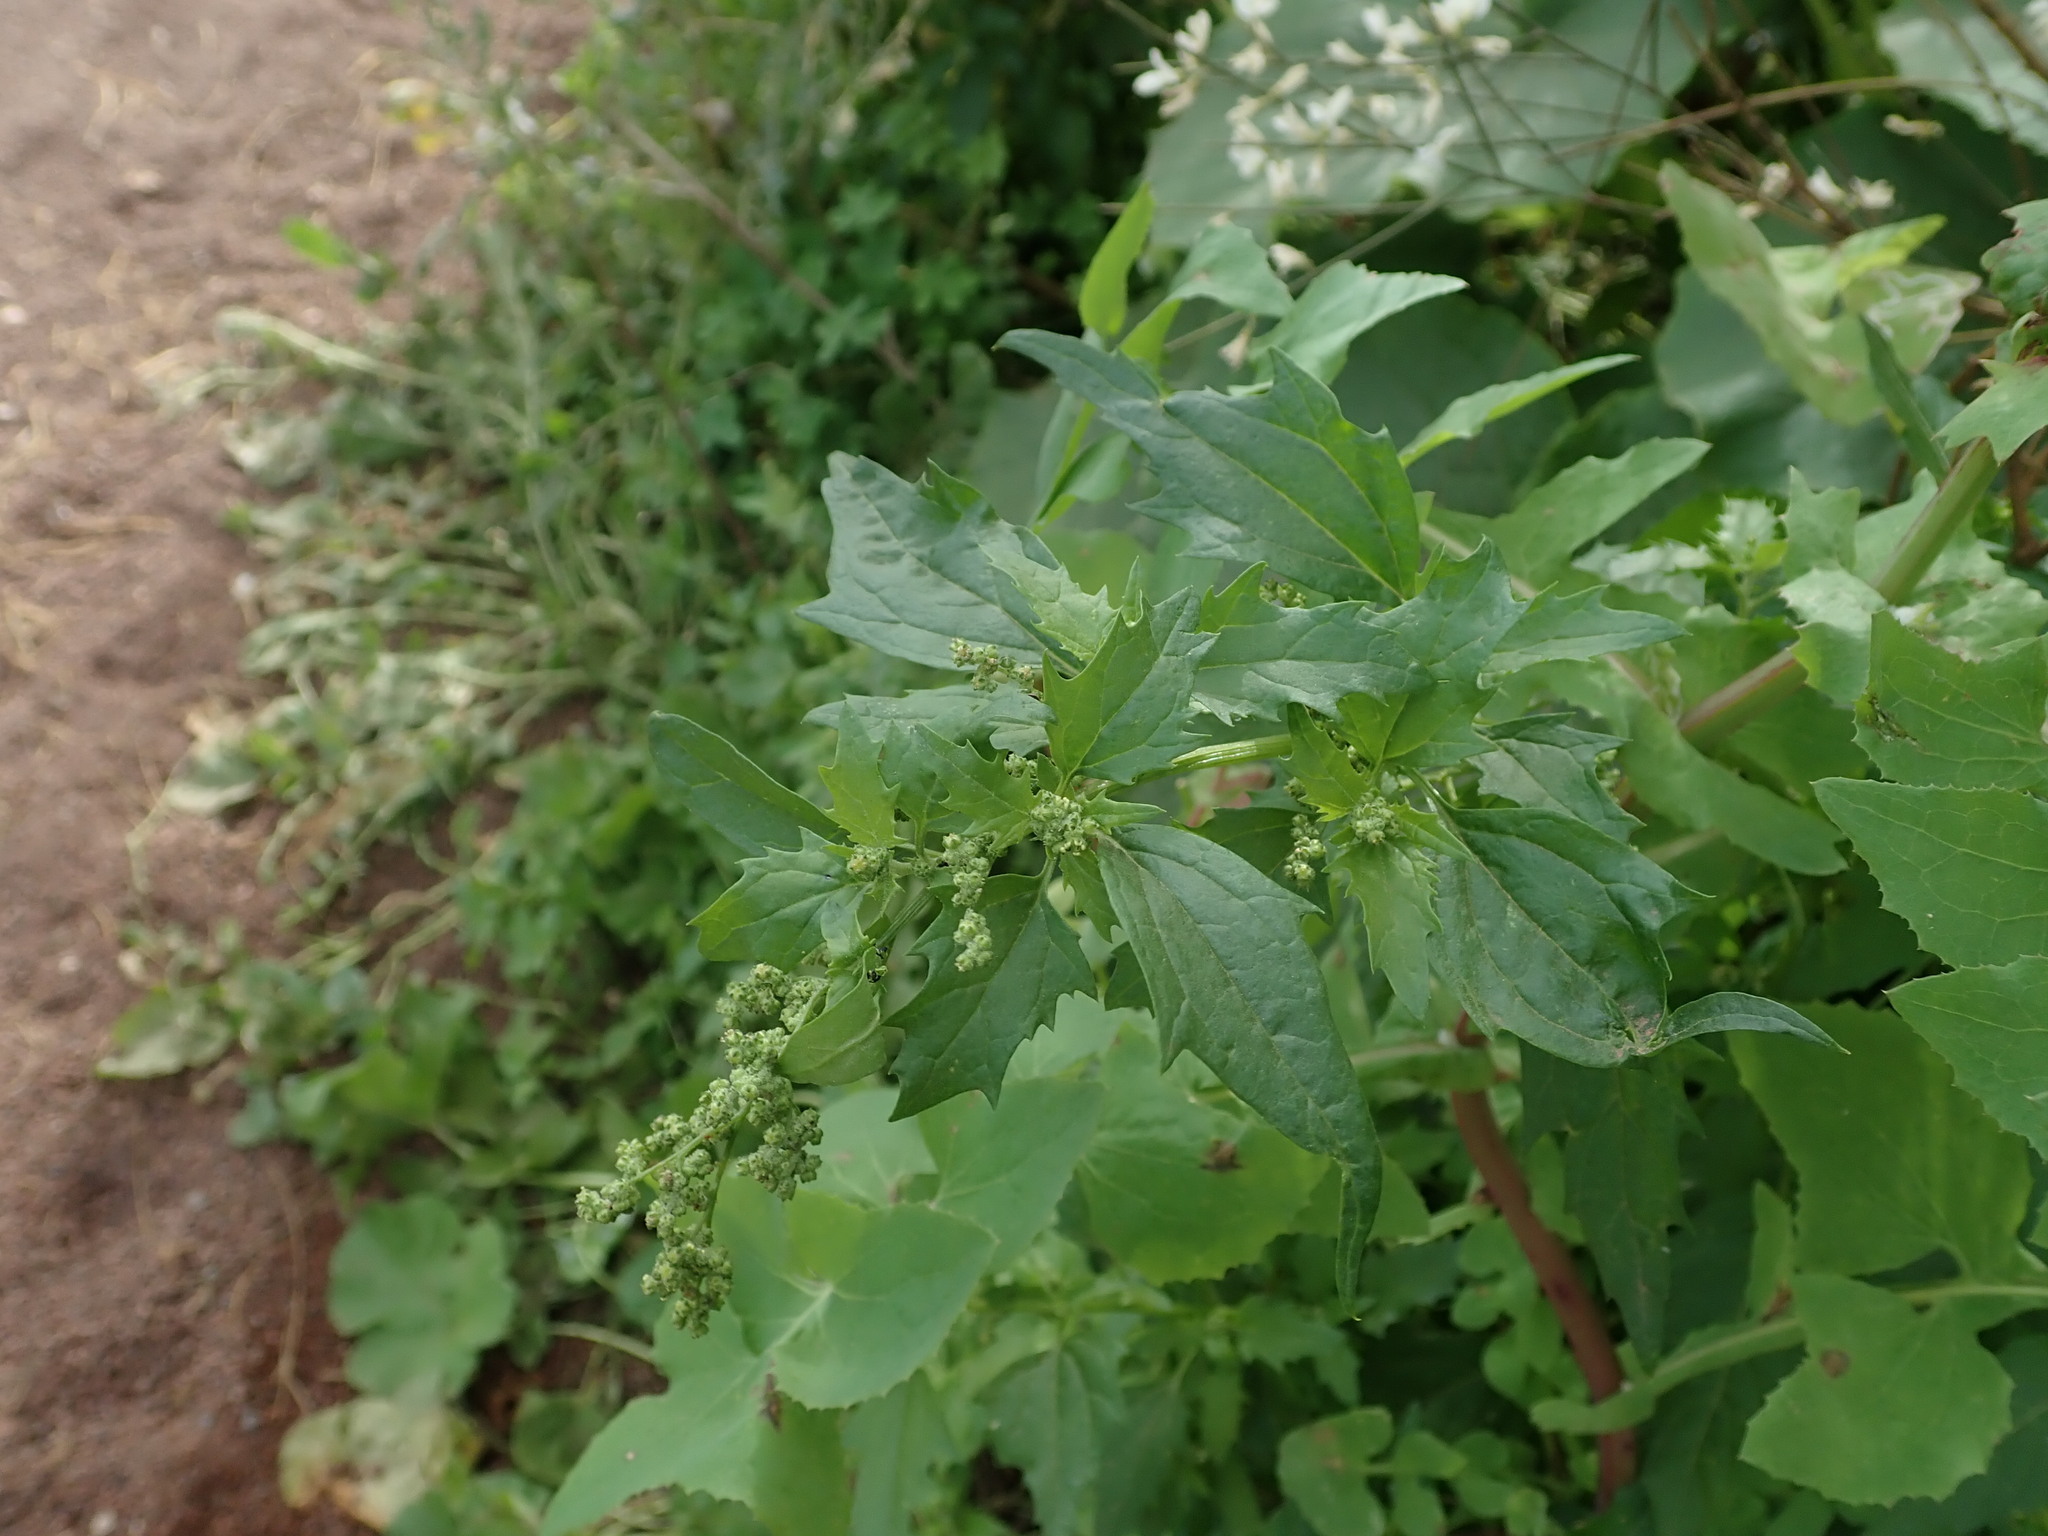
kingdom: Plantae
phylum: Tracheophyta
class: Magnoliopsida
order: Caryophyllales
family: Amaranthaceae
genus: Chenopodiastrum
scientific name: Chenopodiastrum murale
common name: Sowbane
